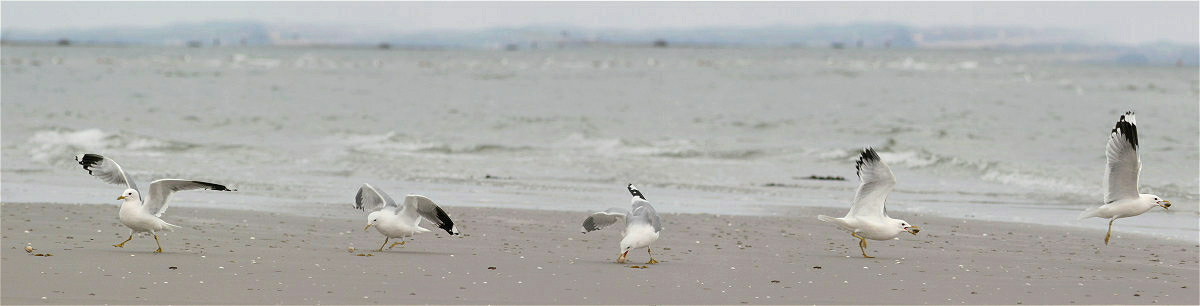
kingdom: Animalia
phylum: Chordata
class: Aves
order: Charadriiformes
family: Laridae
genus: Larus
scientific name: Larus canus
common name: Mew gull
